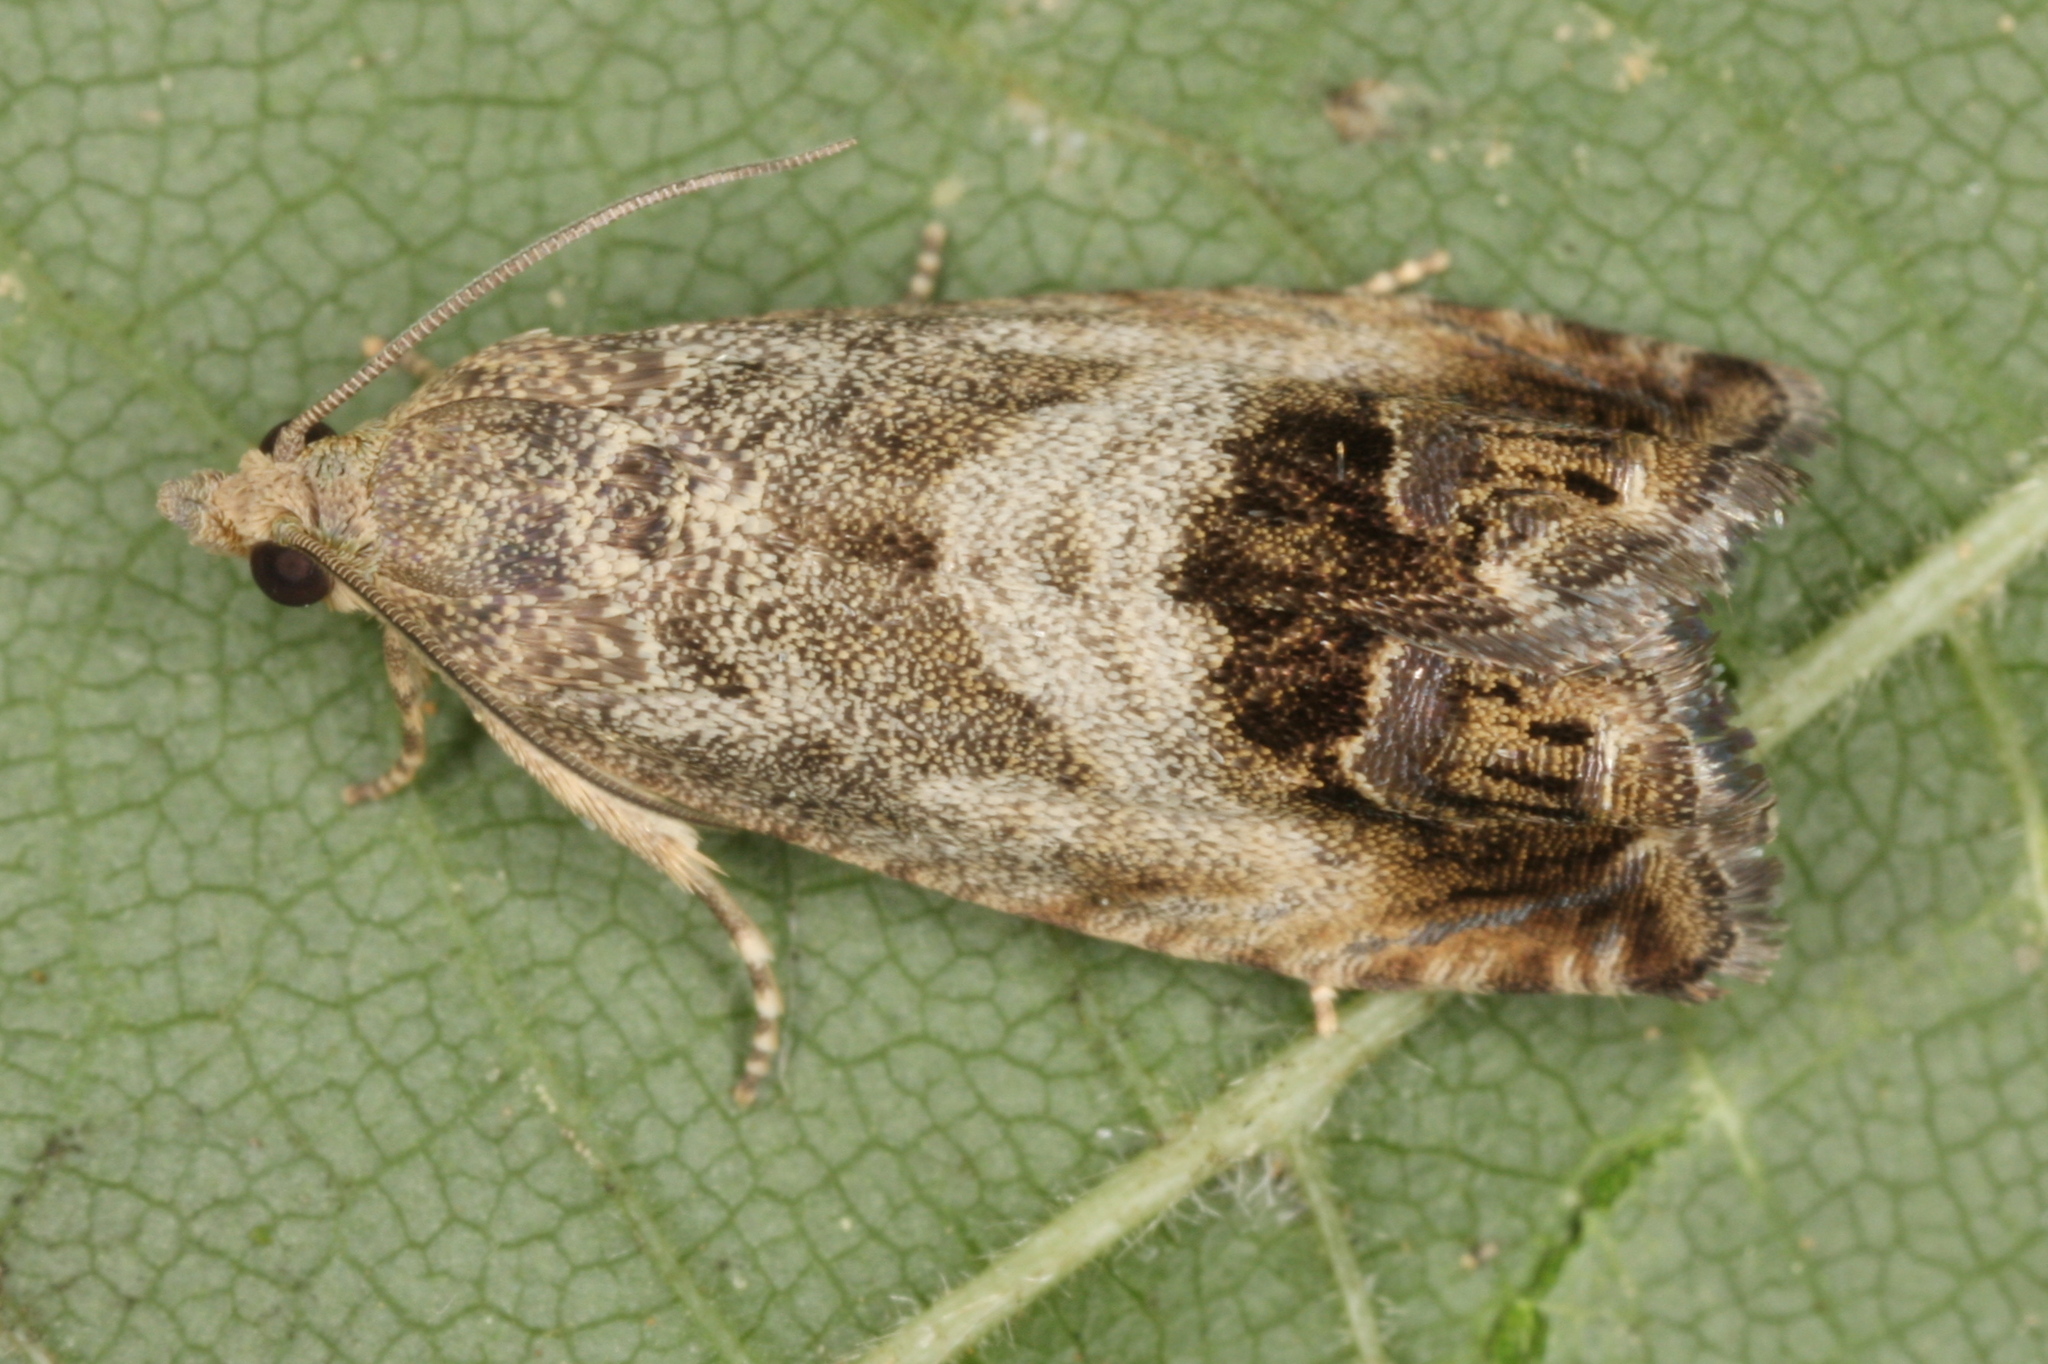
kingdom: Animalia
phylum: Arthropoda
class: Insecta
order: Lepidoptera
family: Tortricidae
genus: Cydia
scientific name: Cydia splendana
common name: De: kastanienwickler, eichenwickler es: oruga de la castaña fr: carpocapse des châtaignes it: cidia o tortrice tardiva delle castagne pt: bichado das castanhas gb: acorn moth, chestnut fruit tortrix
